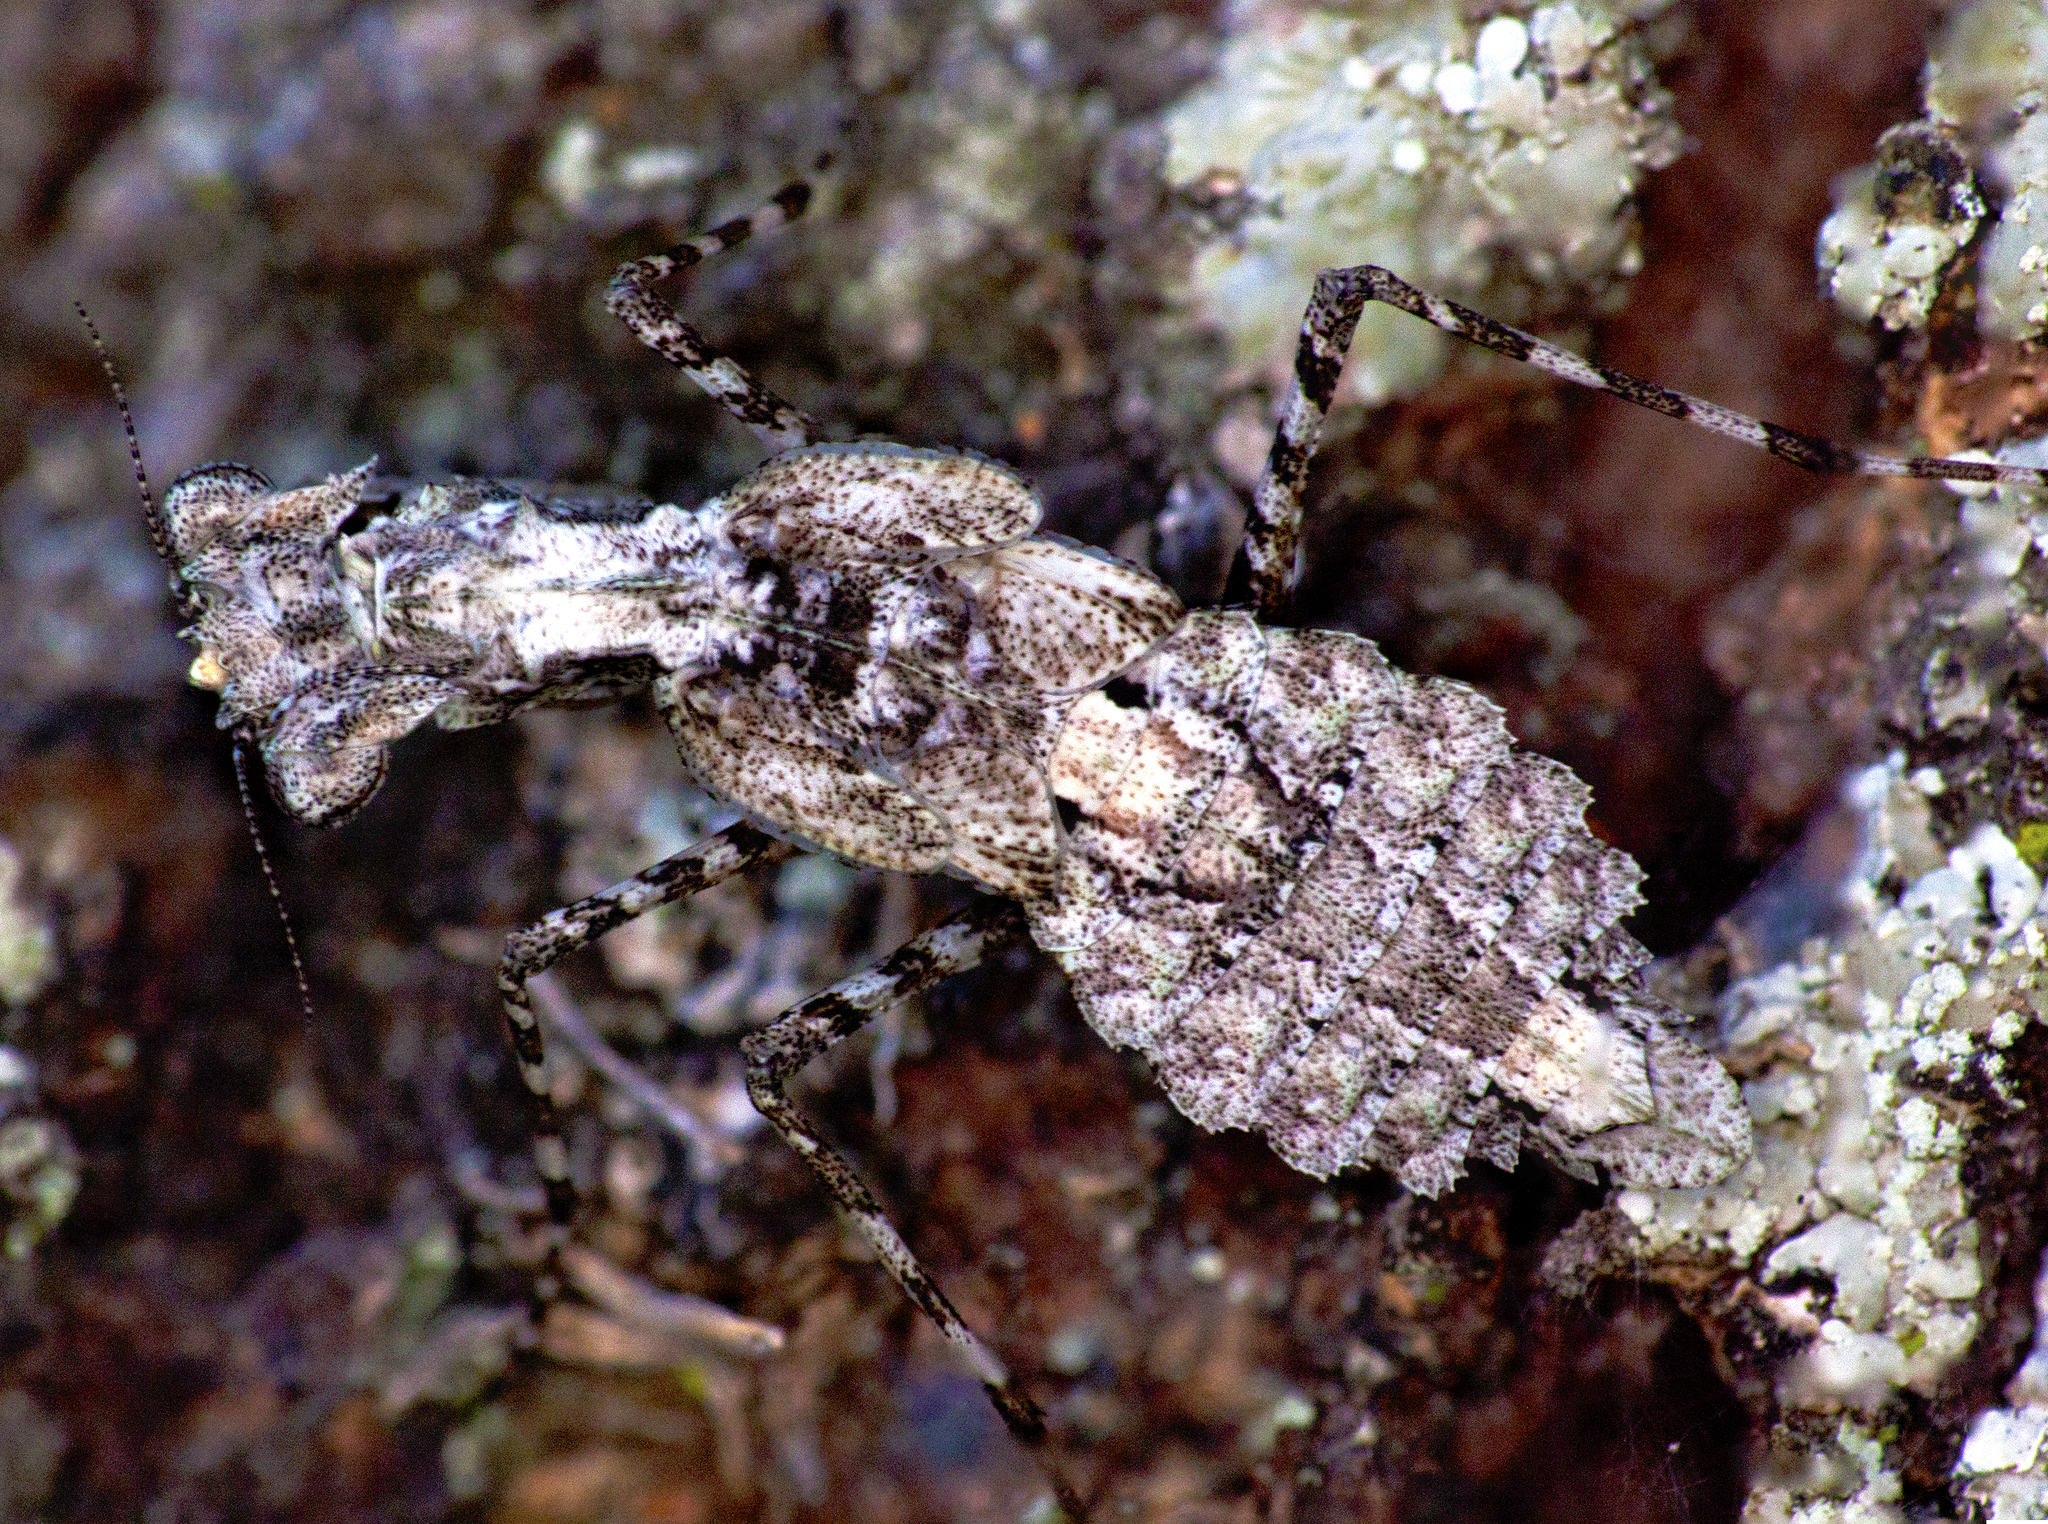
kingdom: Animalia
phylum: Arthropoda
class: Insecta
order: Mantodea
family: Nanomantidae
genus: Metoxypilus
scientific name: Metoxypilus lobifrons
